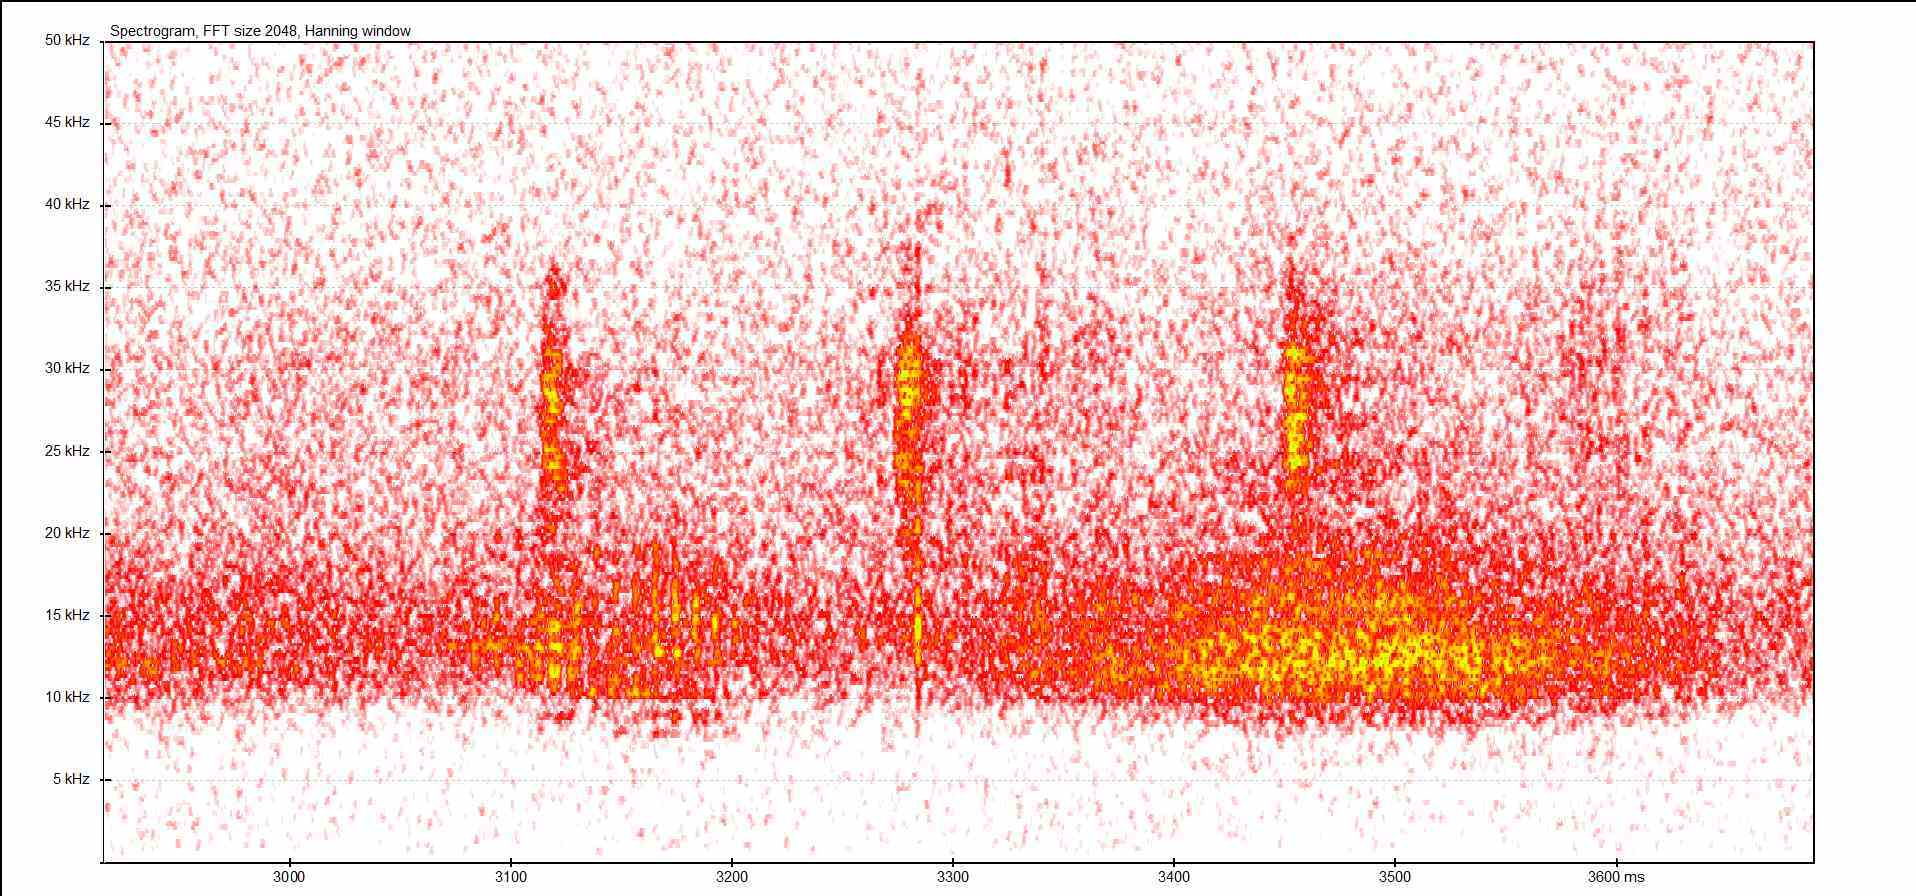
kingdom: Animalia
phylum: Arthropoda
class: Insecta
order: Orthoptera
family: Tettigoniidae
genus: Barbitistes
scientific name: Barbitistes serricauda
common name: Saw-tailed bush-cricket
